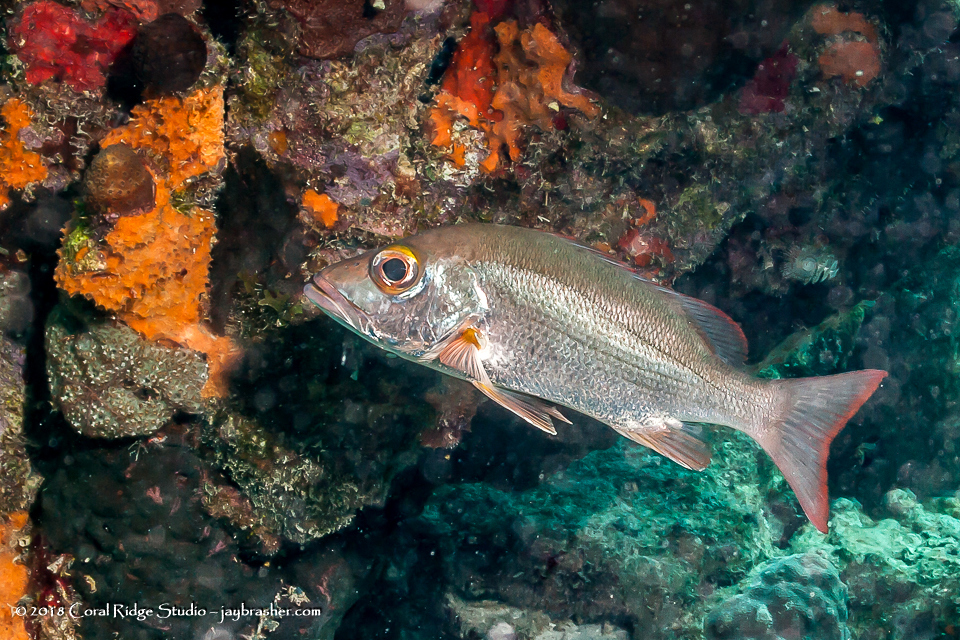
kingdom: Animalia
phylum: Chordata
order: Perciformes
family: Lutjanidae
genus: Lutjanus
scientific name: Lutjanus mahogoni
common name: Spot snapper
